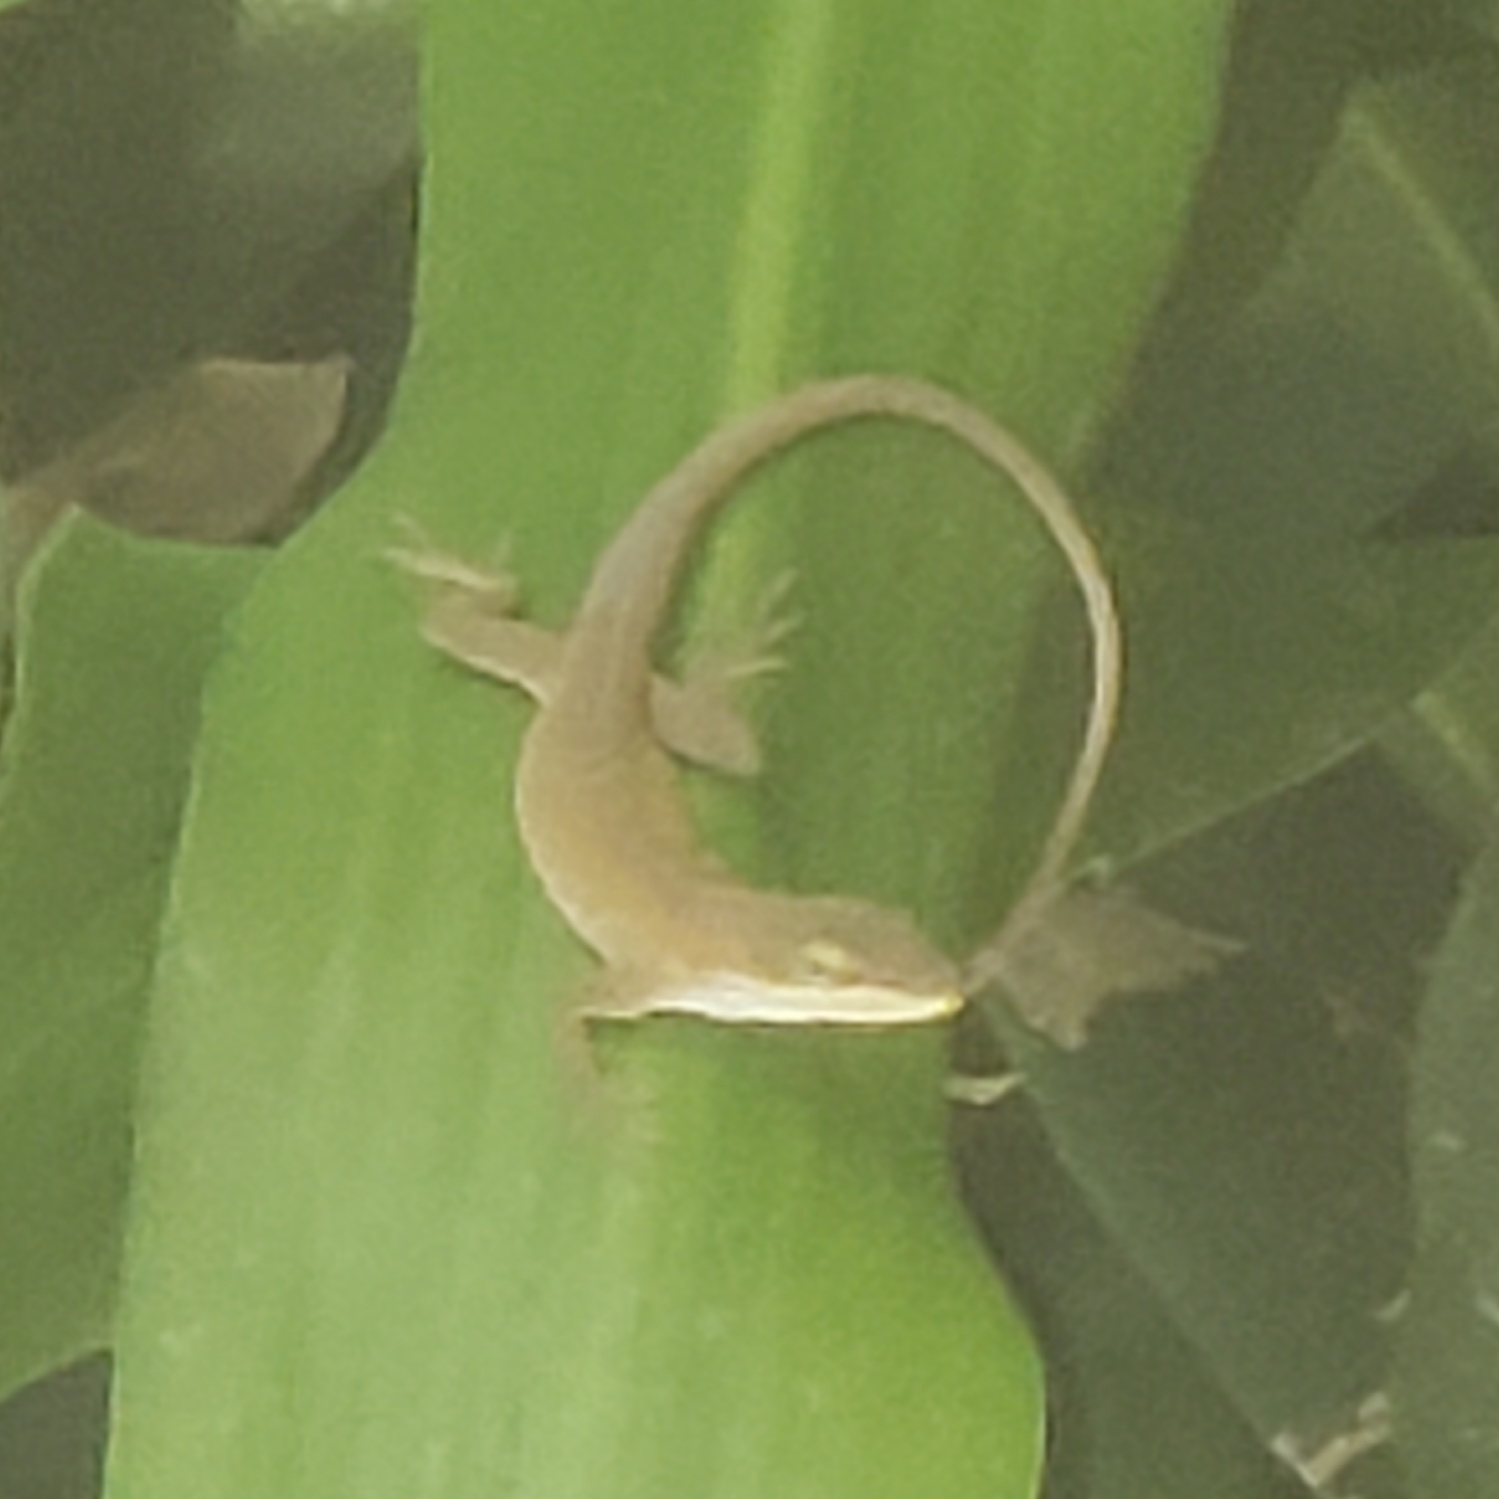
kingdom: Animalia
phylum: Chordata
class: Squamata
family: Dactyloidae
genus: Anolis
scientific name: Anolis carolinensis
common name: Green anole
